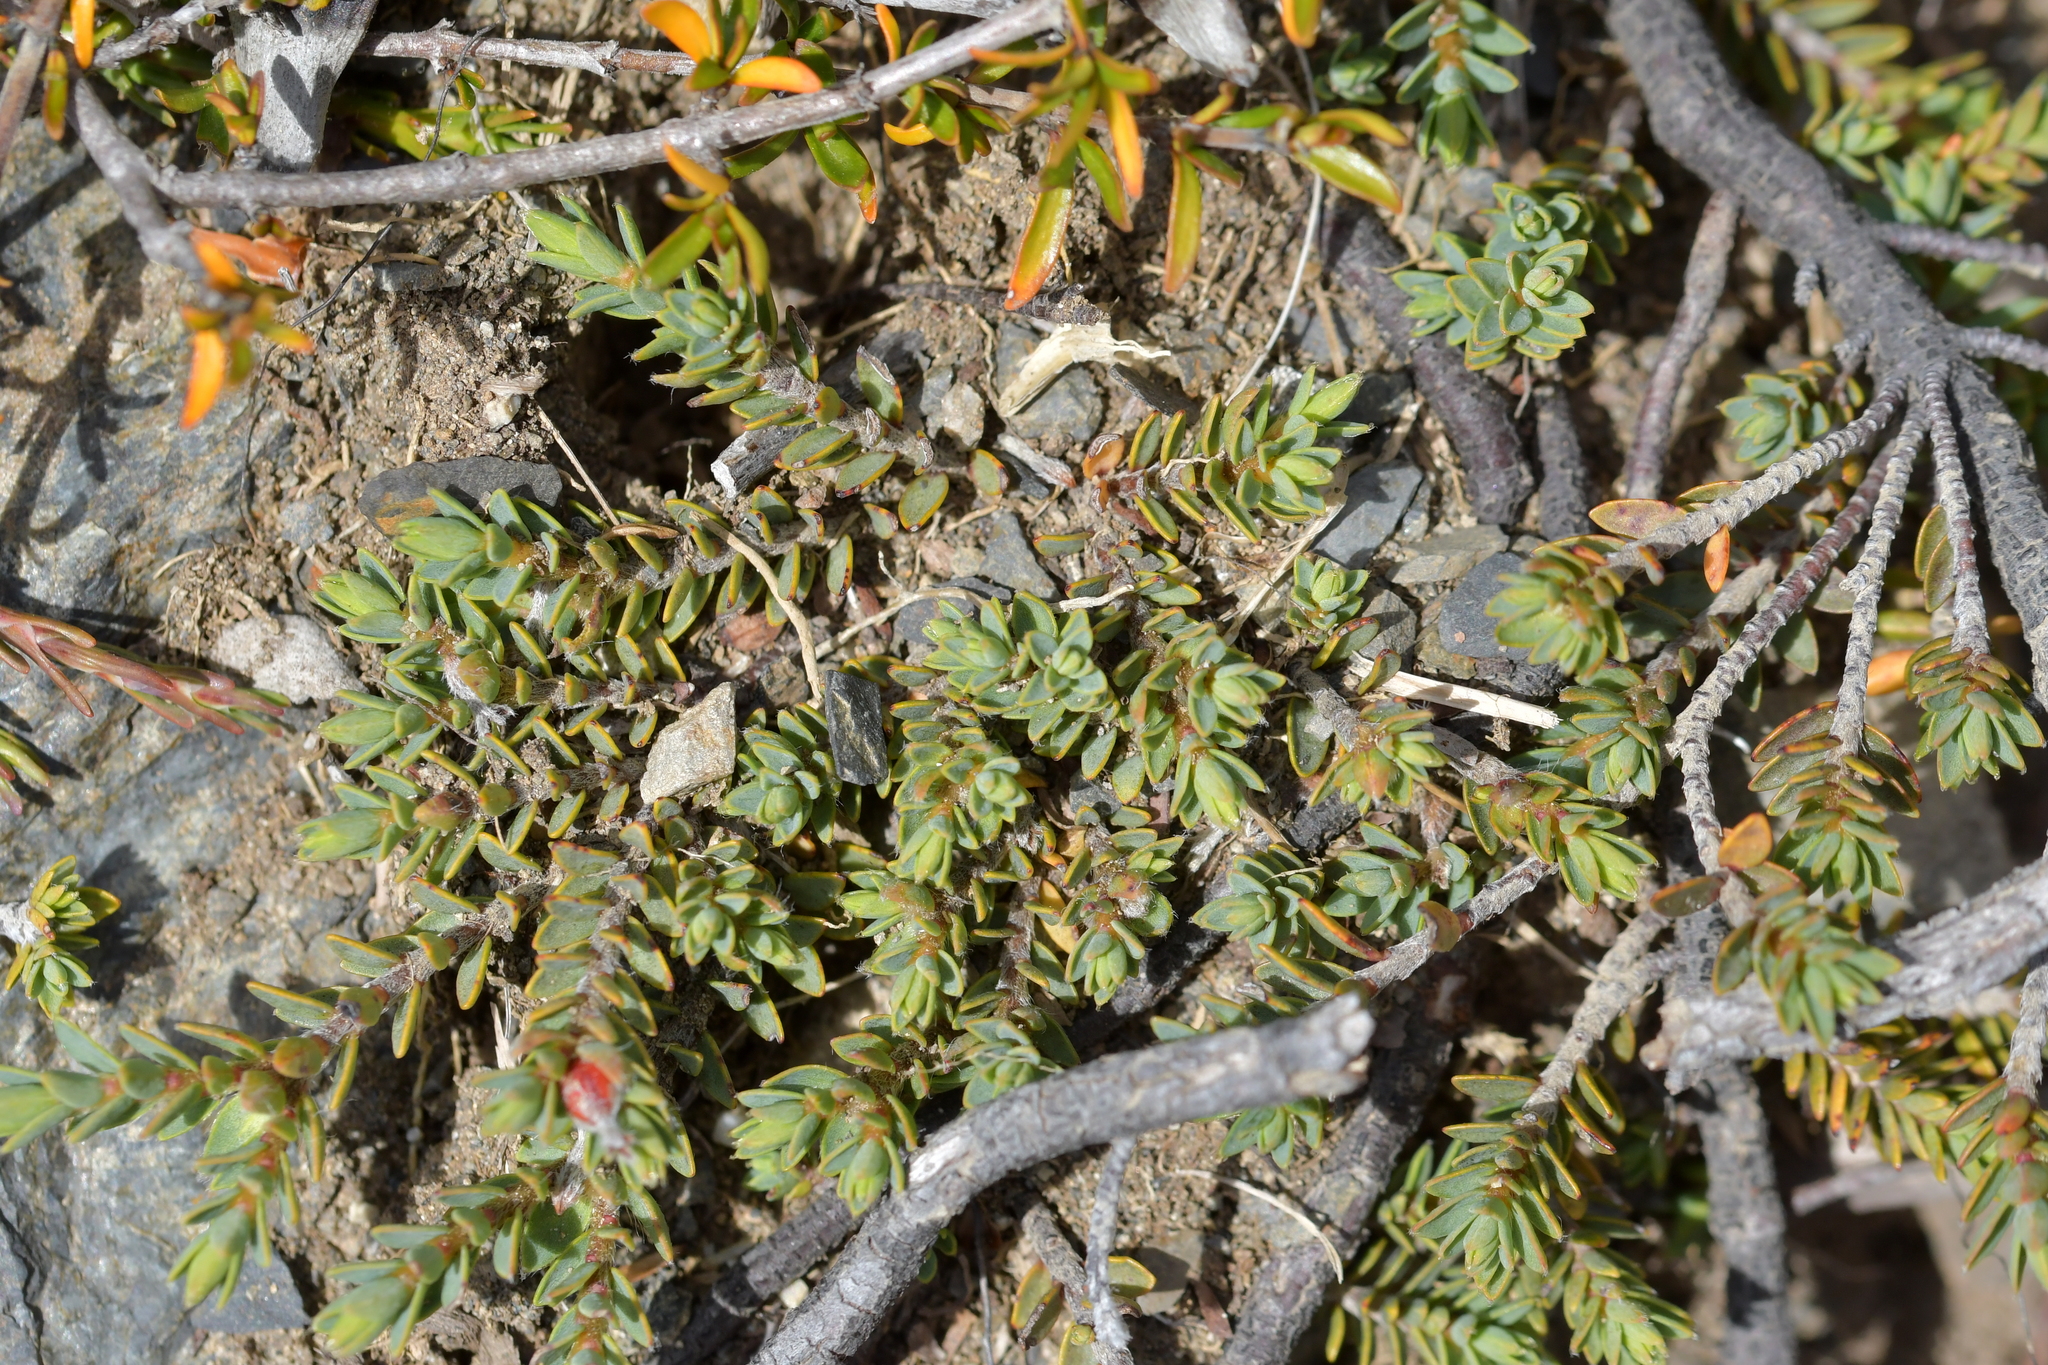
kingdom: Plantae
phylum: Tracheophyta
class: Magnoliopsida
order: Malvales
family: Thymelaeaceae
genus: Pimelea
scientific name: Pimelea oreophila
